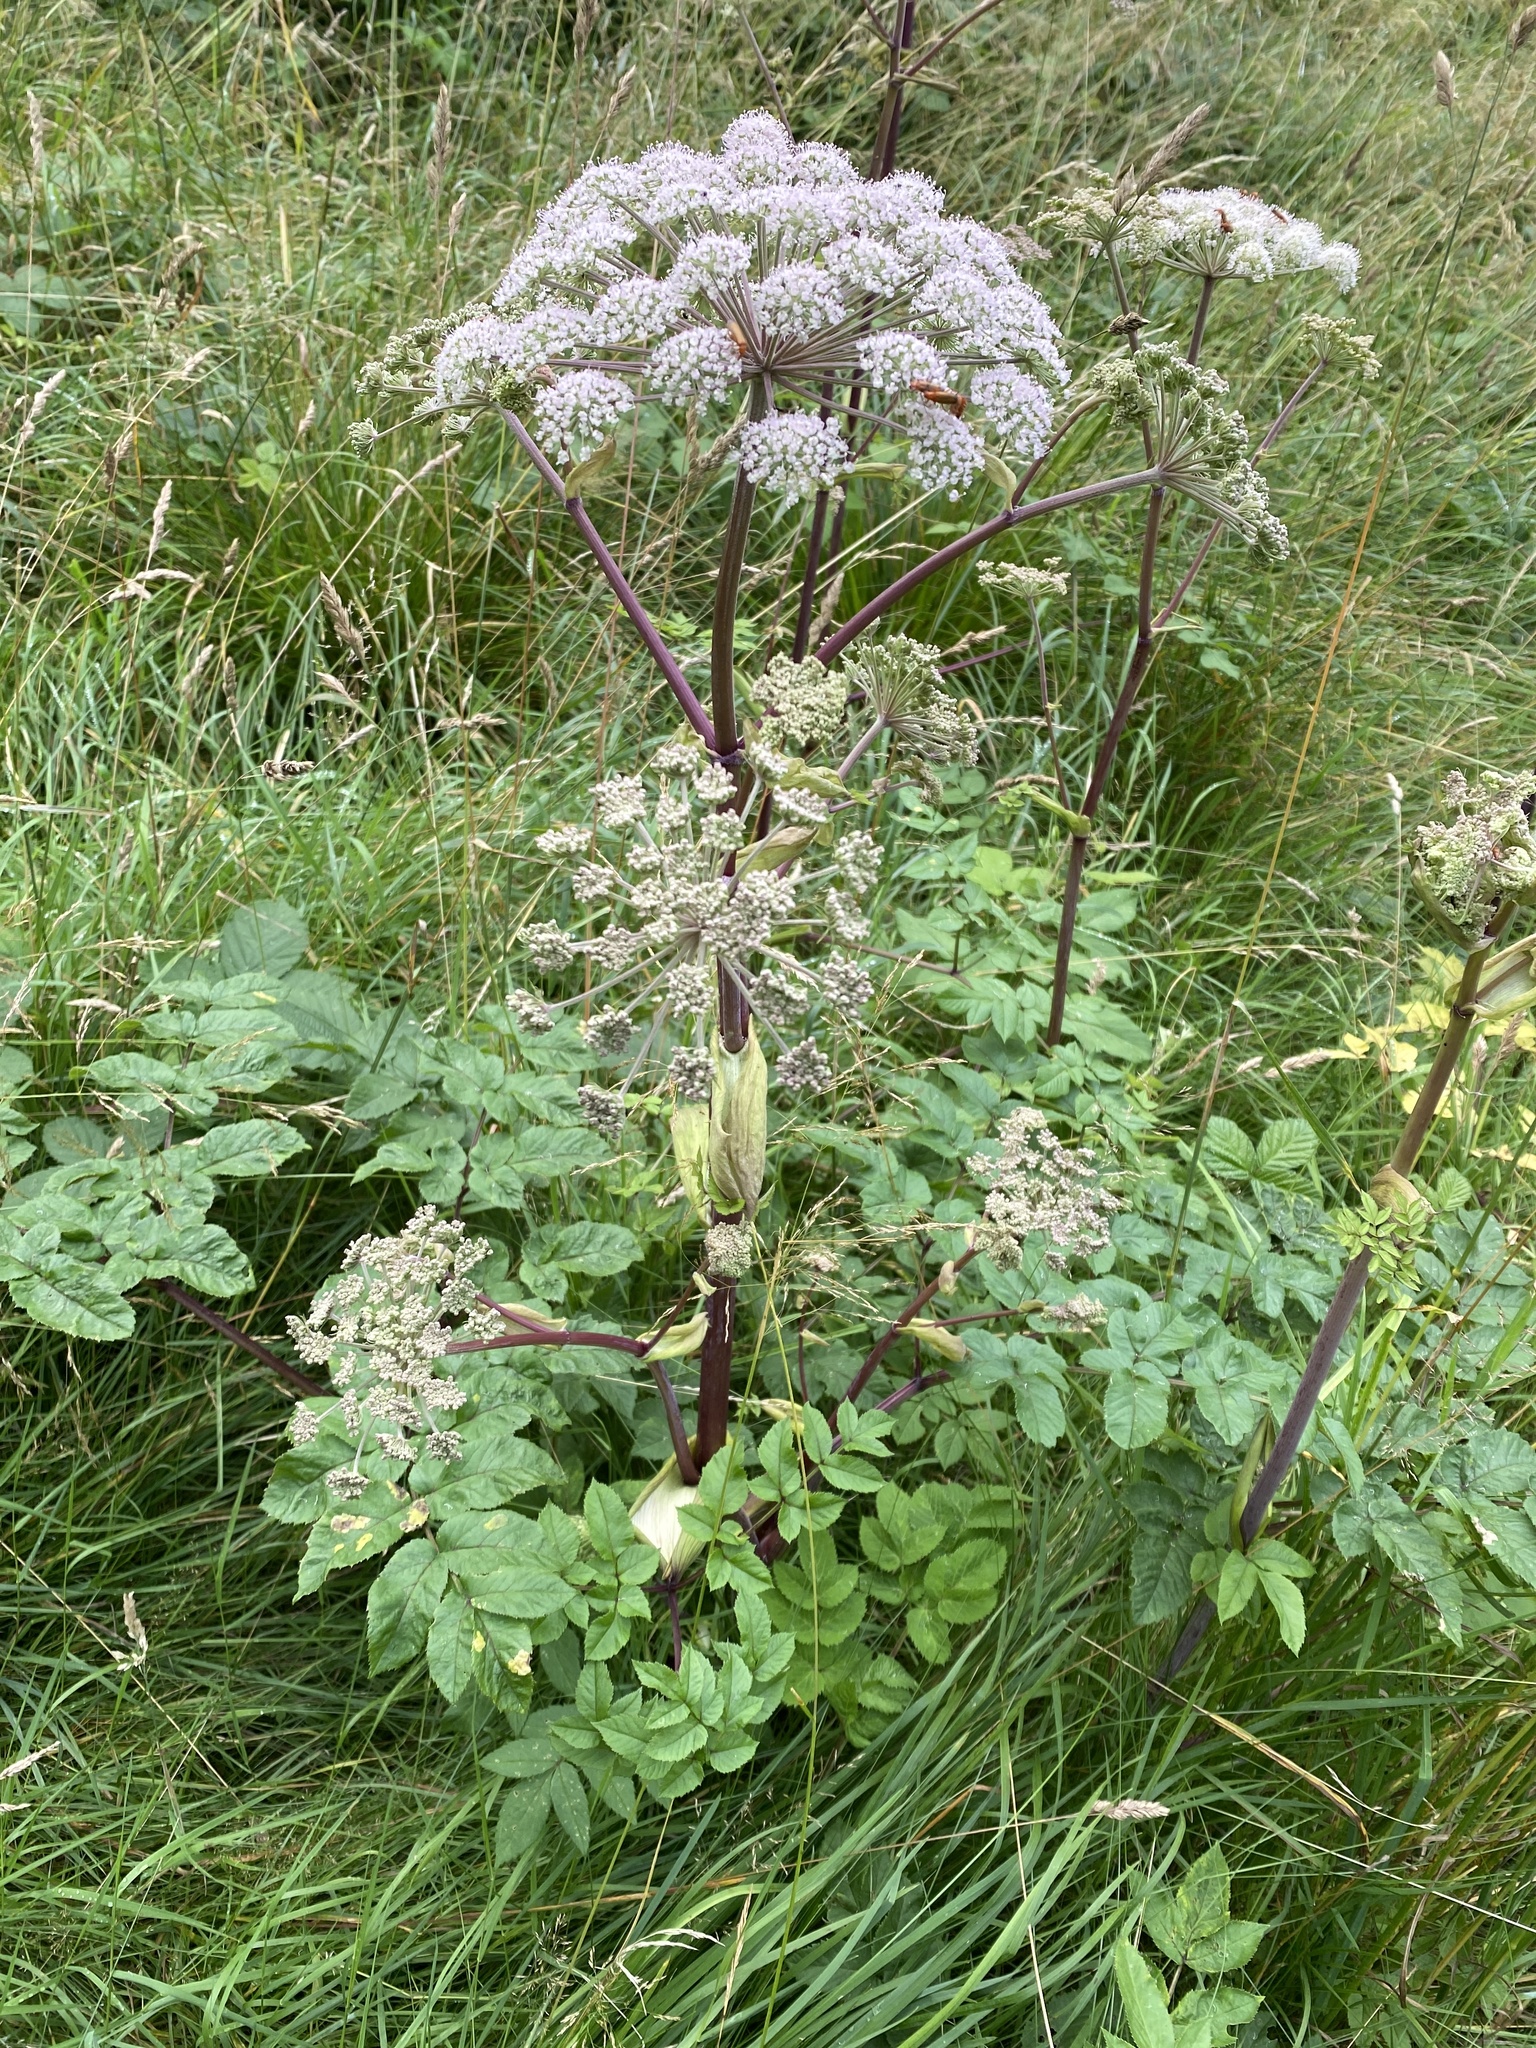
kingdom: Plantae
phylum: Tracheophyta
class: Magnoliopsida
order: Apiales
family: Apiaceae
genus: Angelica
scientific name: Angelica sylvestris
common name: Wild angelica
